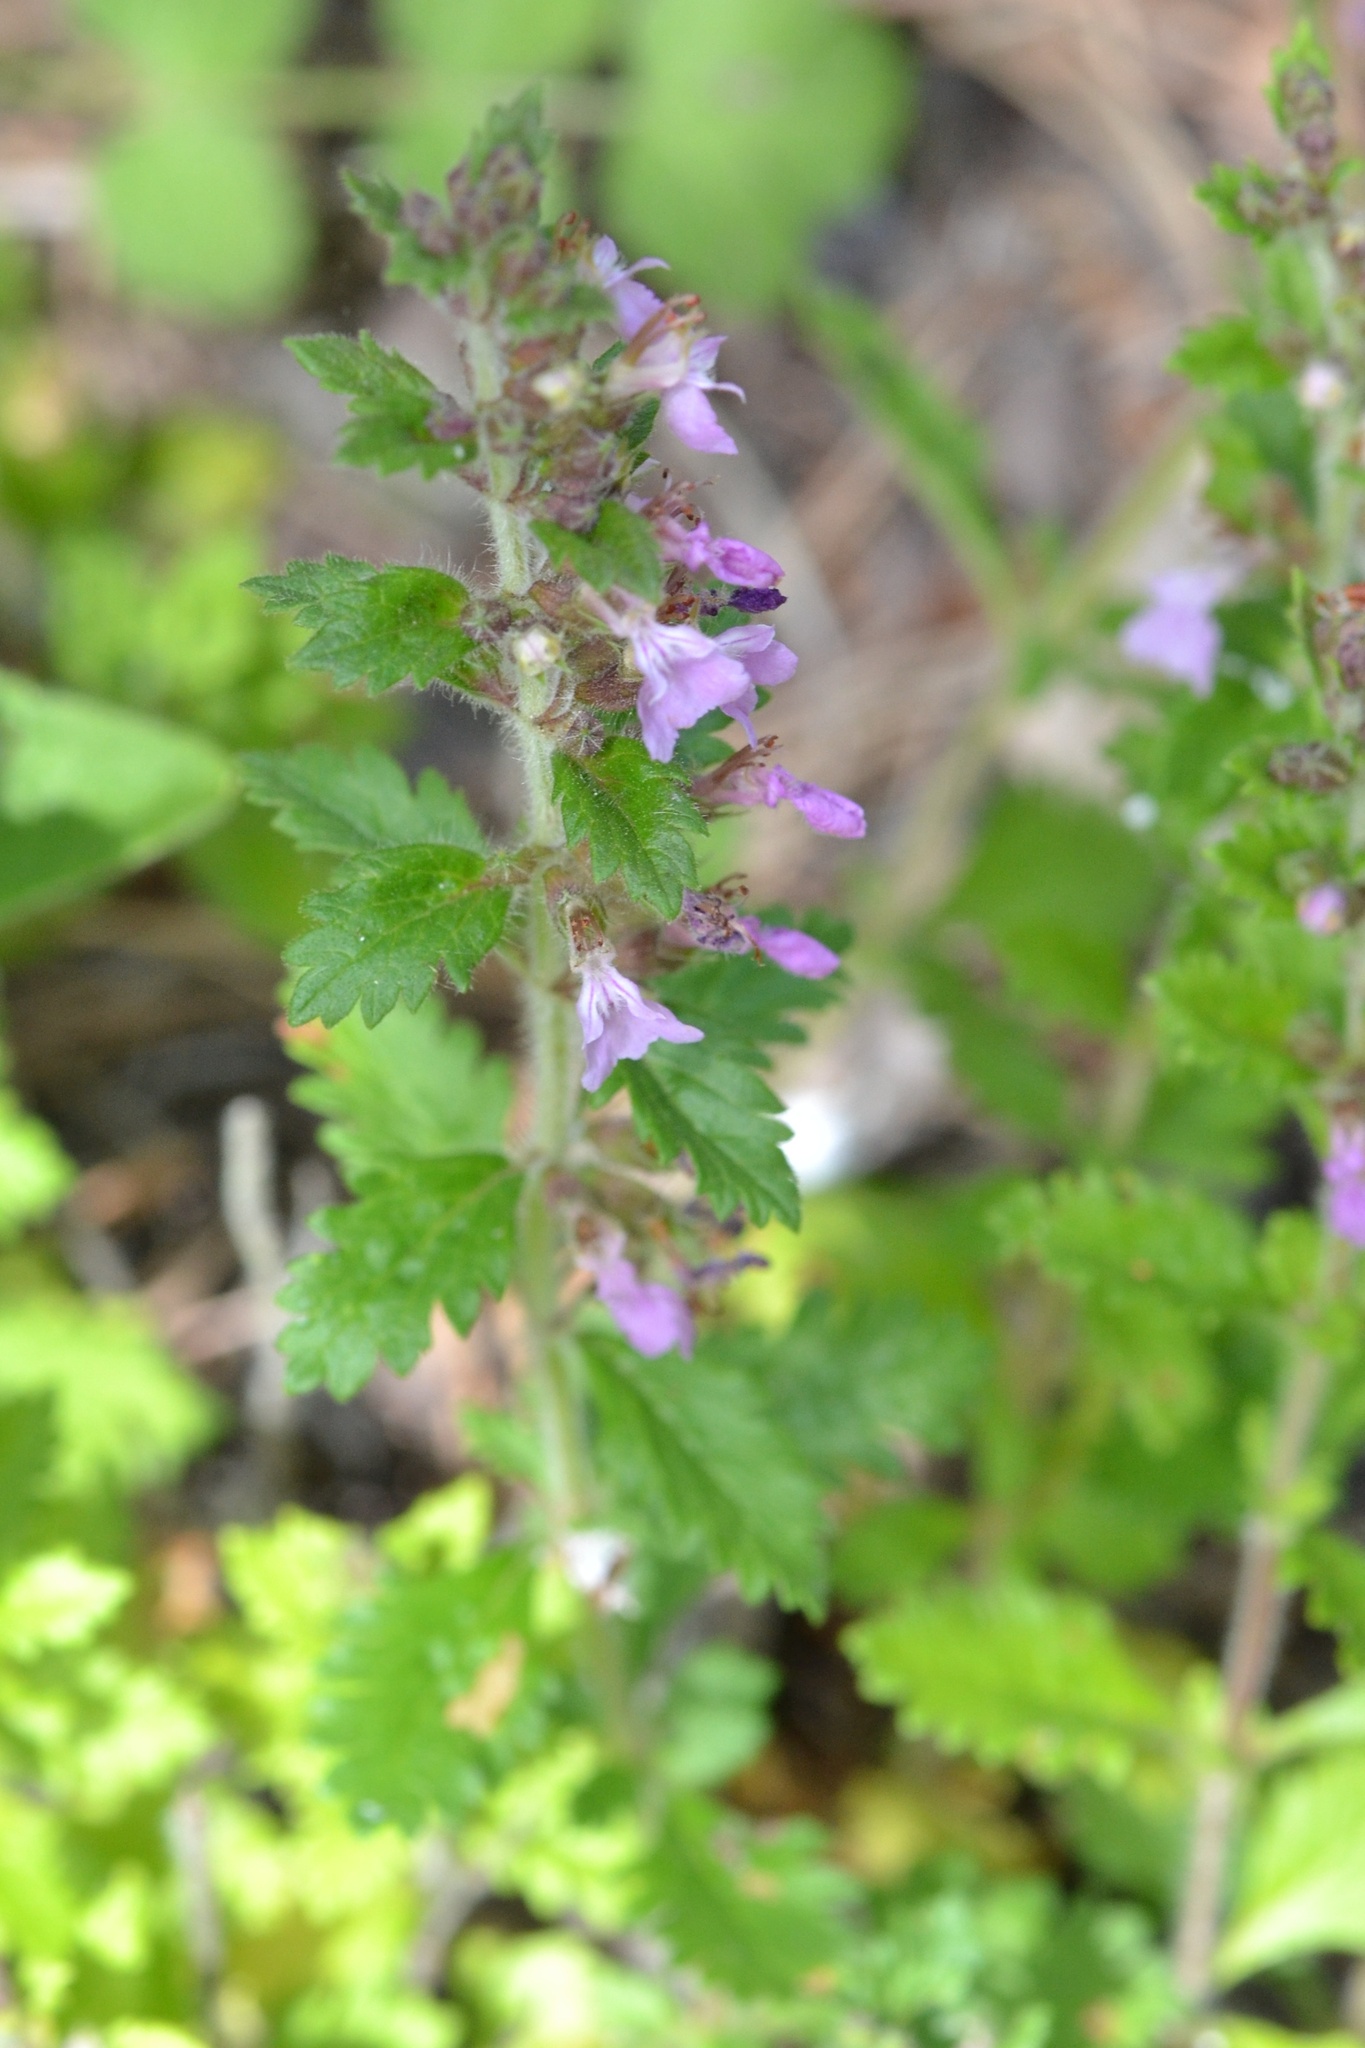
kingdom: Plantae
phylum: Tracheophyta
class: Magnoliopsida
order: Lamiales
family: Lamiaceae
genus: Teucrium
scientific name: Teucrium chamaedrys
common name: Wall germander
